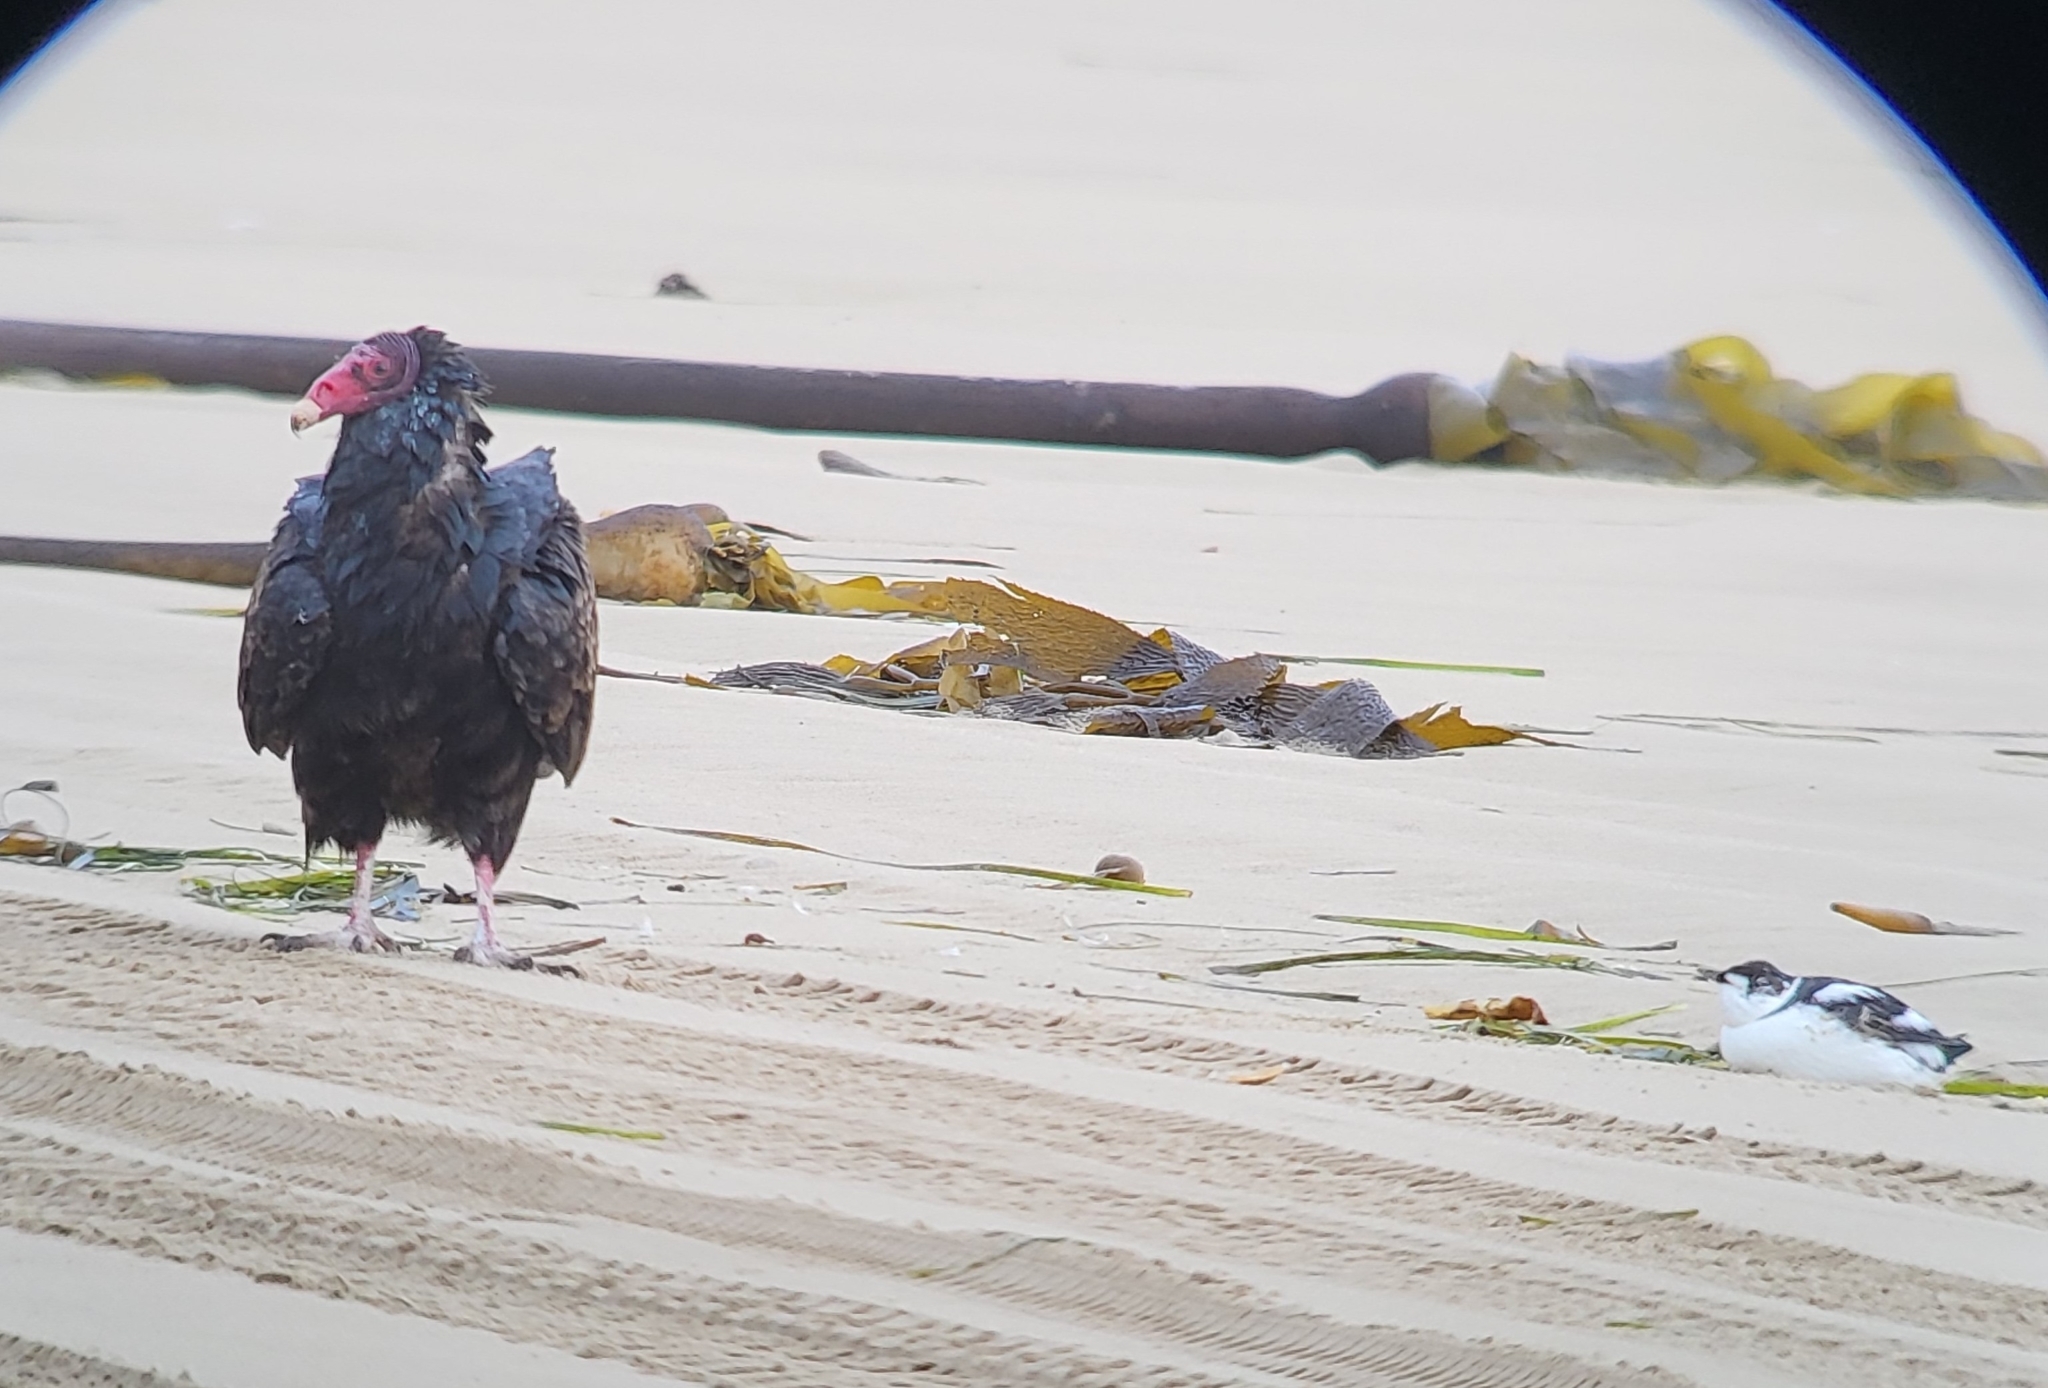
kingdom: Animalia
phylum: Chordata
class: Aves
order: Charadriiformes
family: Alcidae
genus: Brachyramphus
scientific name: Brachyramphus marmoratus
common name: Marbled murrelet
